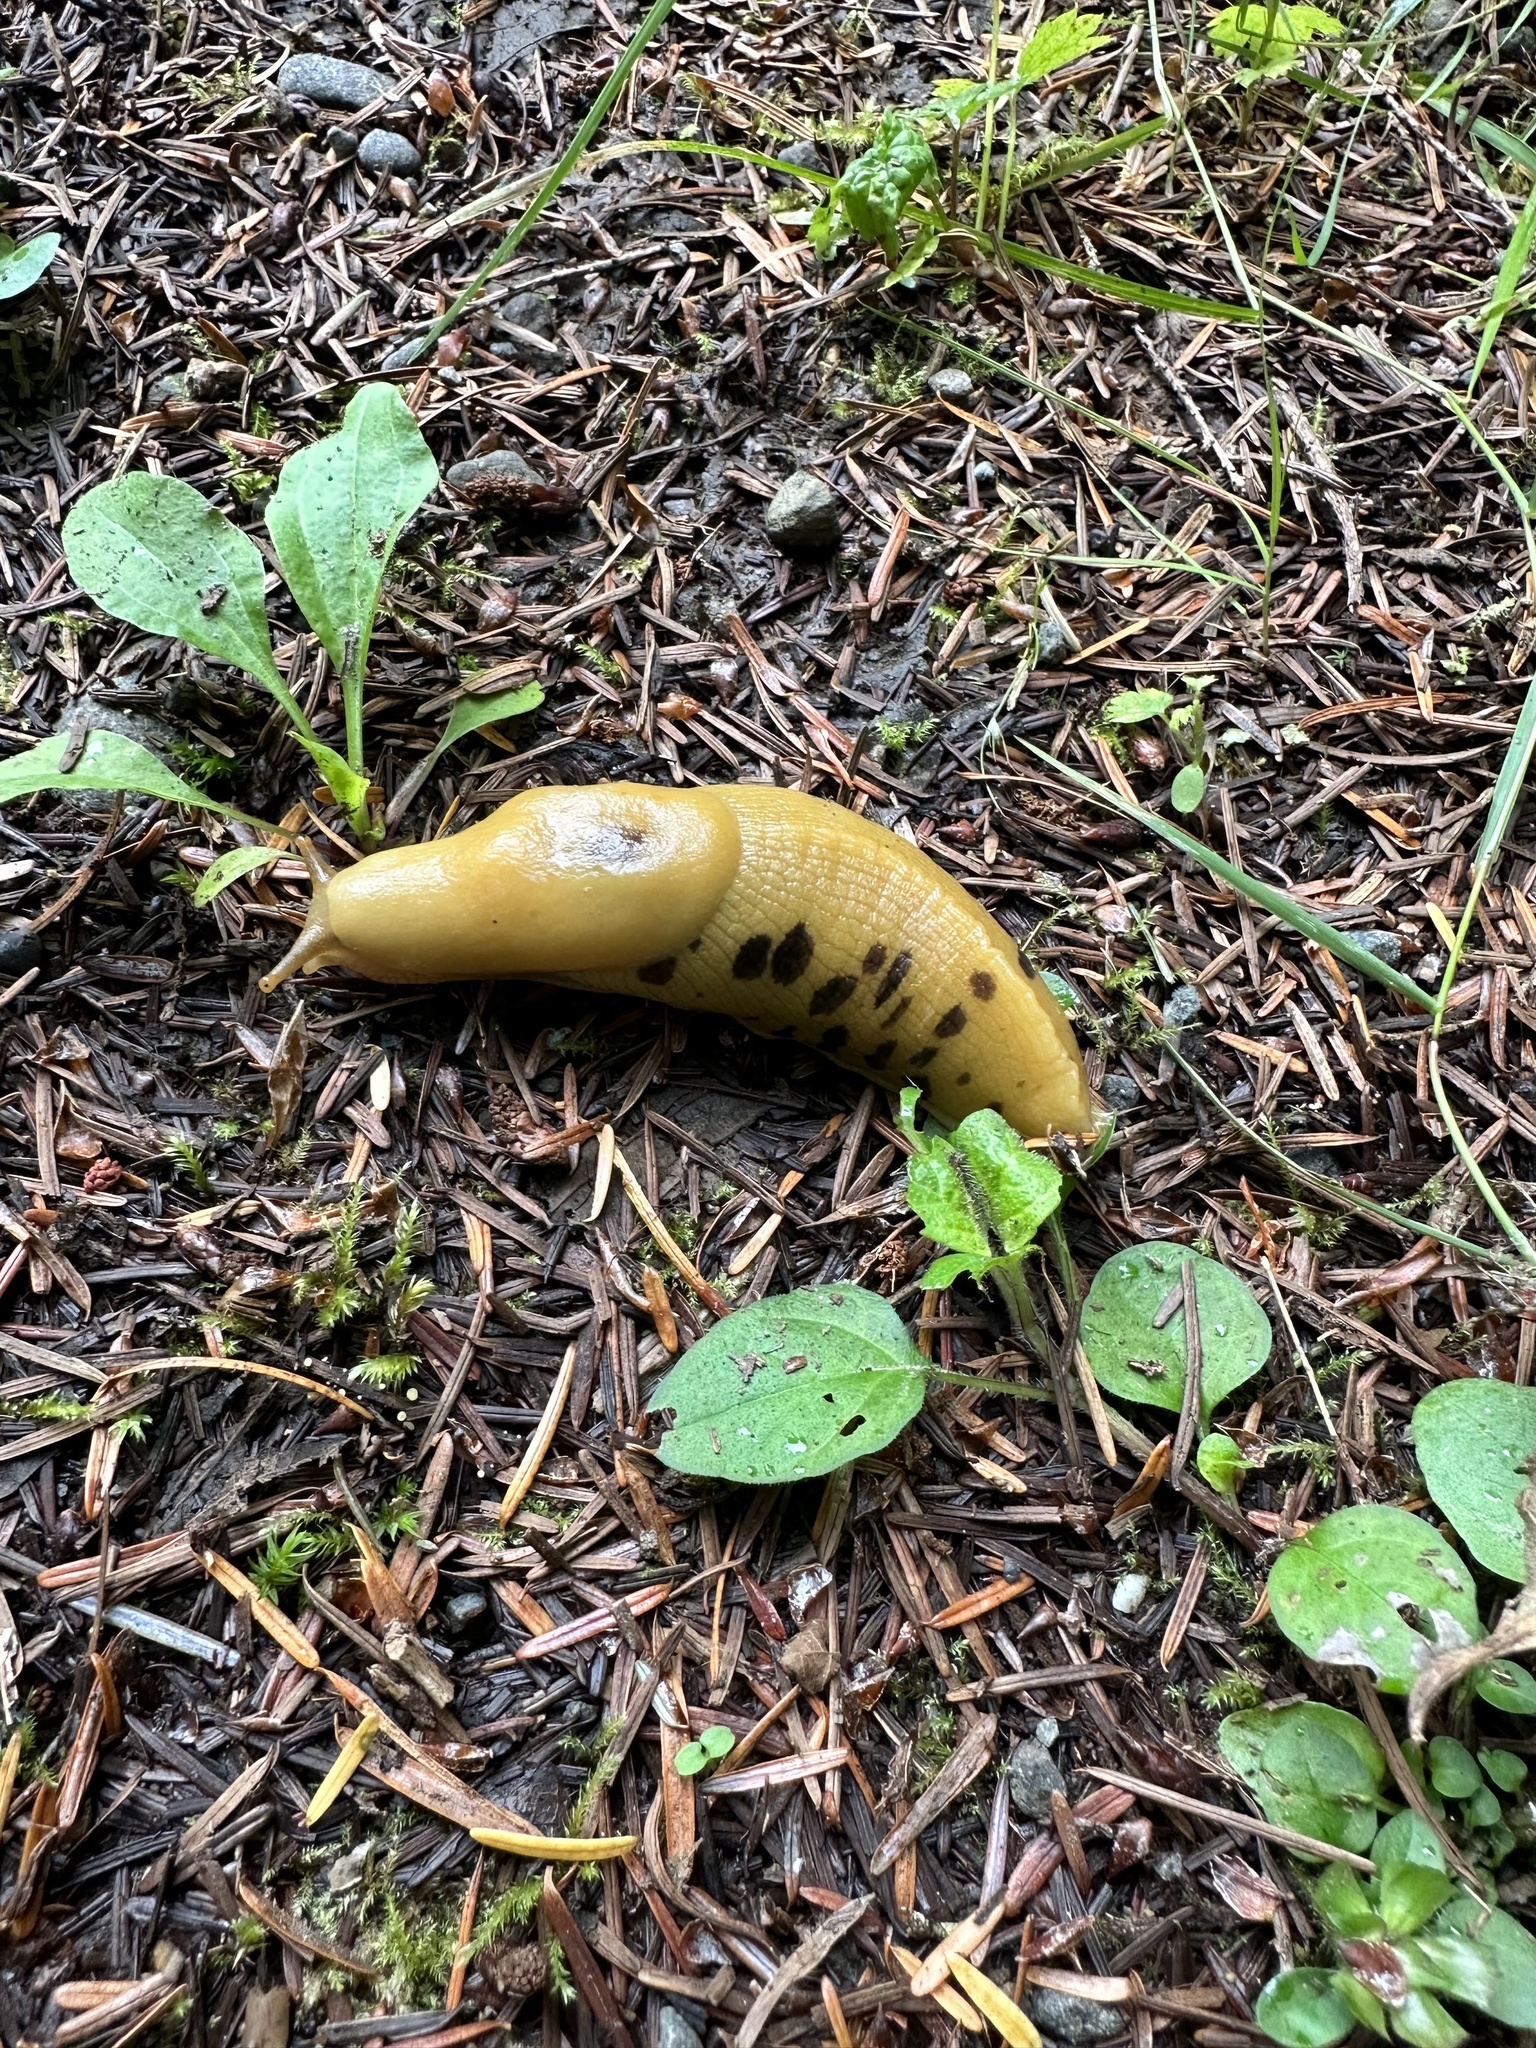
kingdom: Animalia
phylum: Mollusca
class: Gastropoda
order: Stylommatophora
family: Ariolimacidae
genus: Ariolimax
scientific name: Ariolimax columbianus
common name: Pacific banana slug
